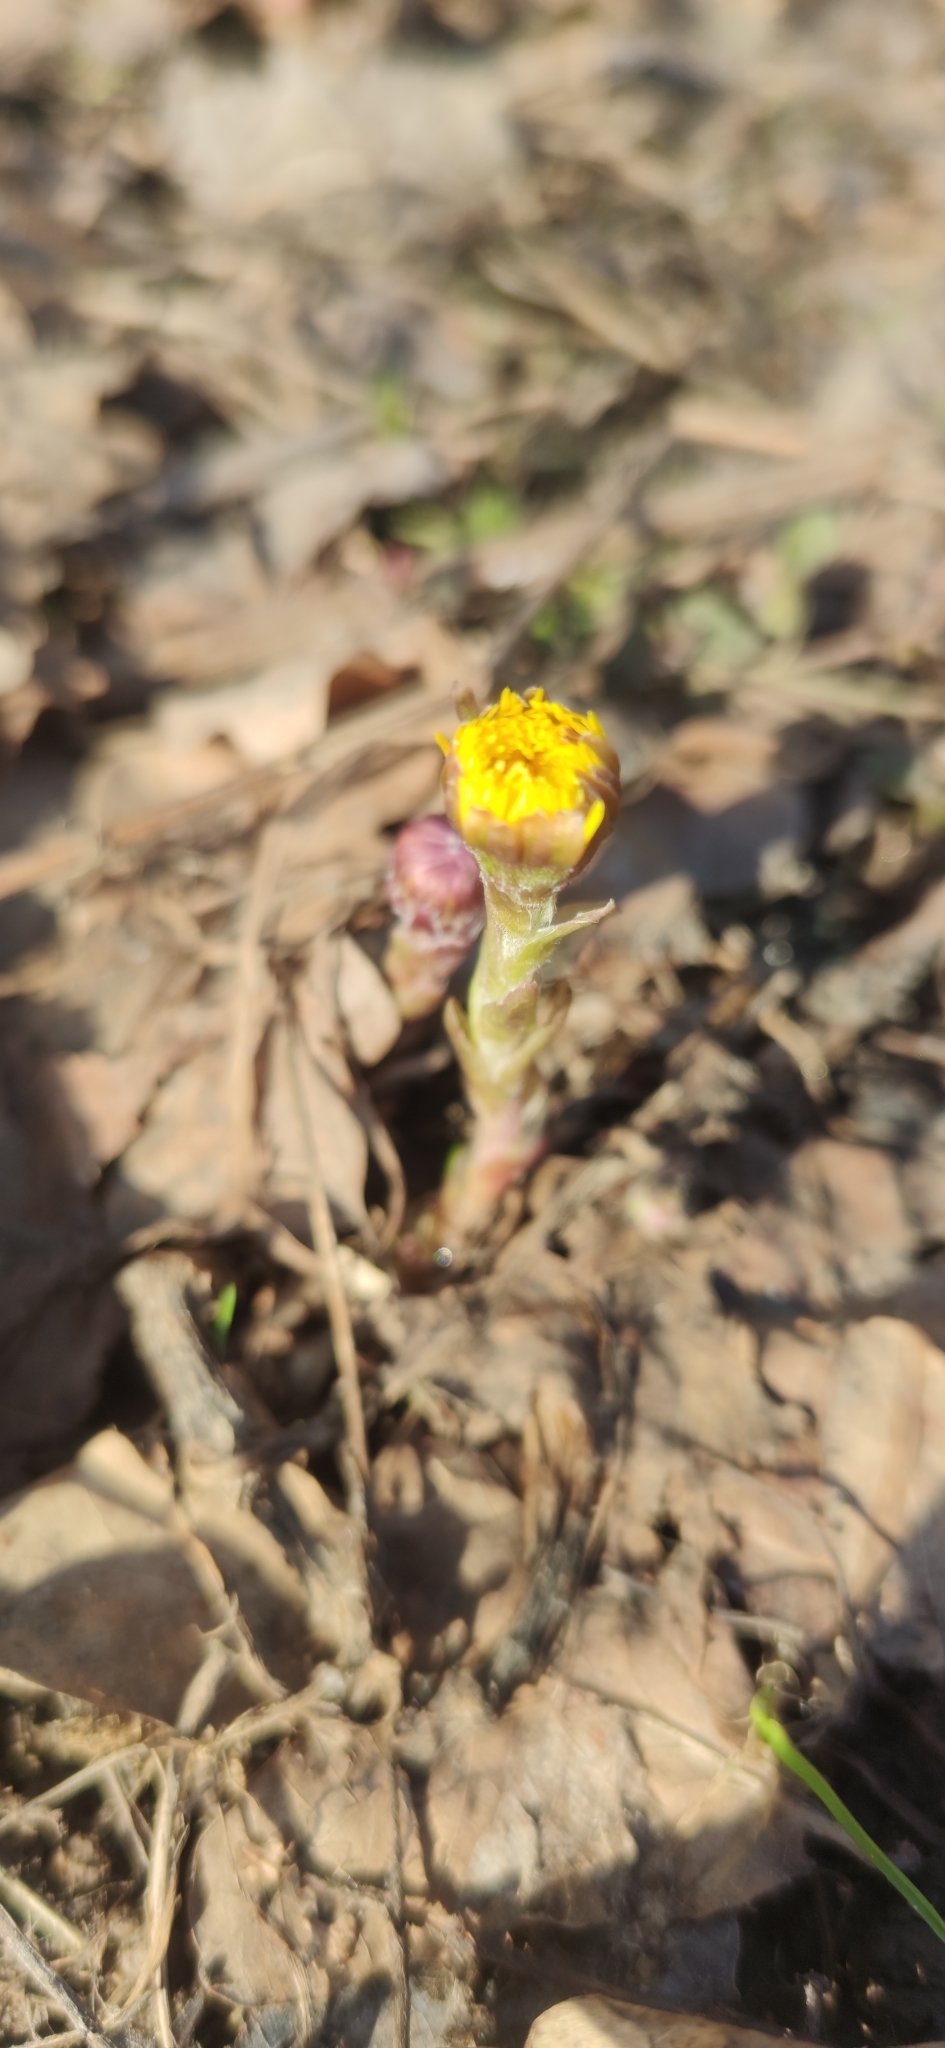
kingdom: Plantae
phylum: Tracheophyta
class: Magnoliopsida
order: Asterales
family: Asteraceae
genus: Tussilago
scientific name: Tussilago farfara
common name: Coltsfoot
